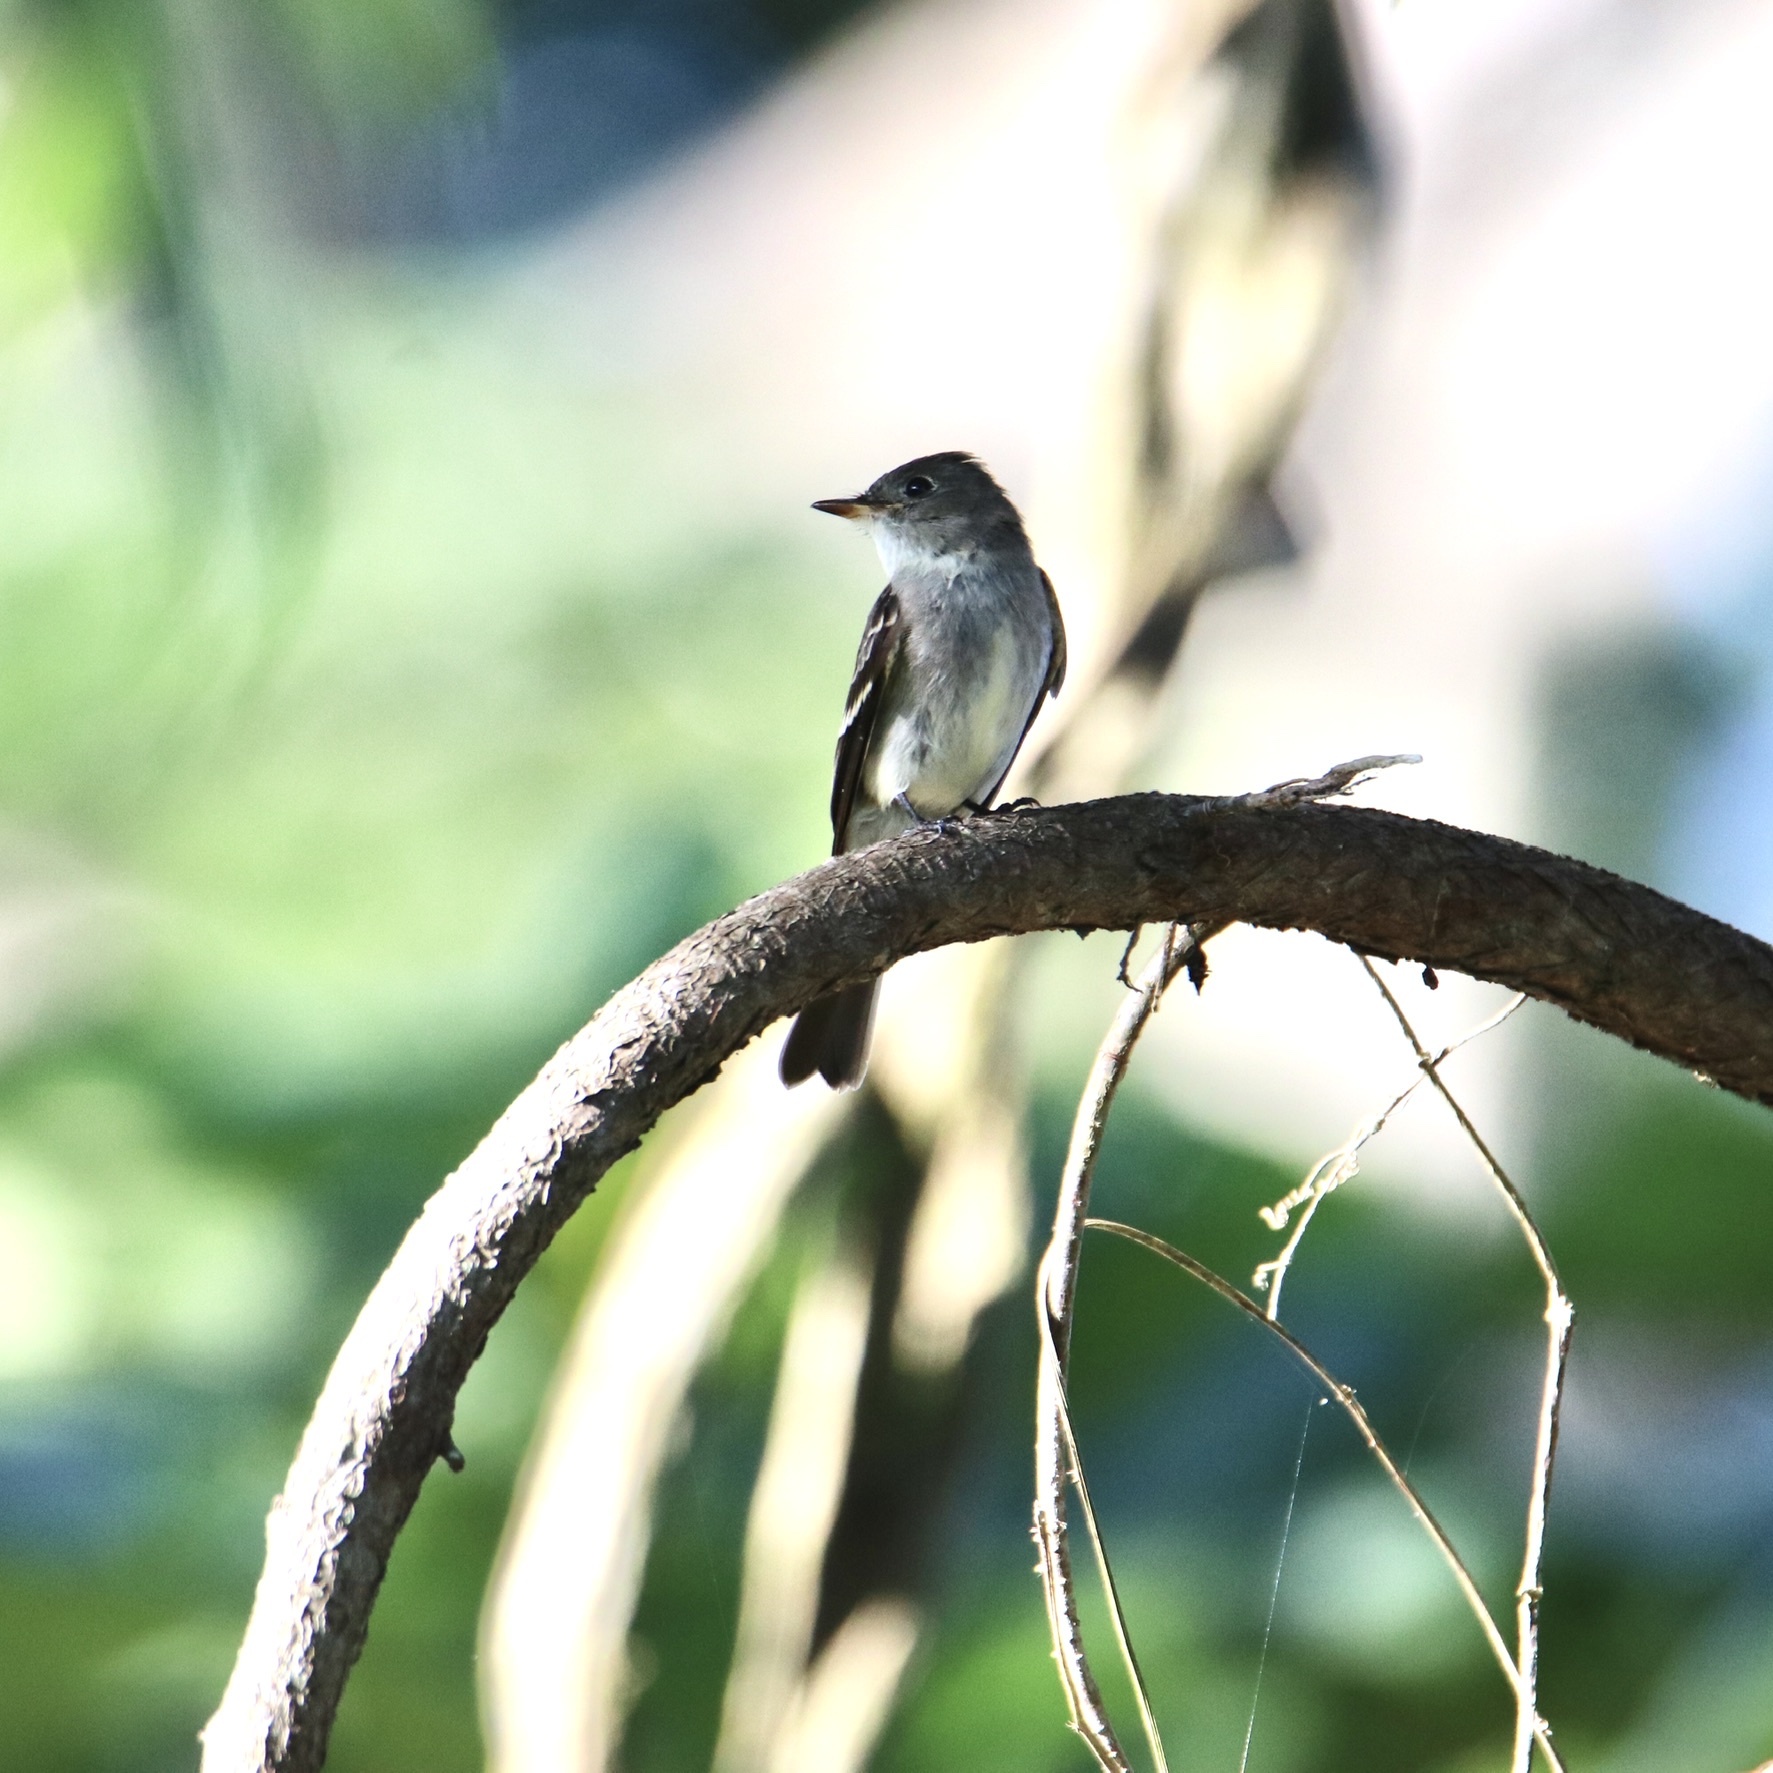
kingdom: Animalia
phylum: Chordata
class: Aves
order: Passeriformes
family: Tyrannidae
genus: Contopus
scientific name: Contopus virens
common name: Eastern wood-pewee
